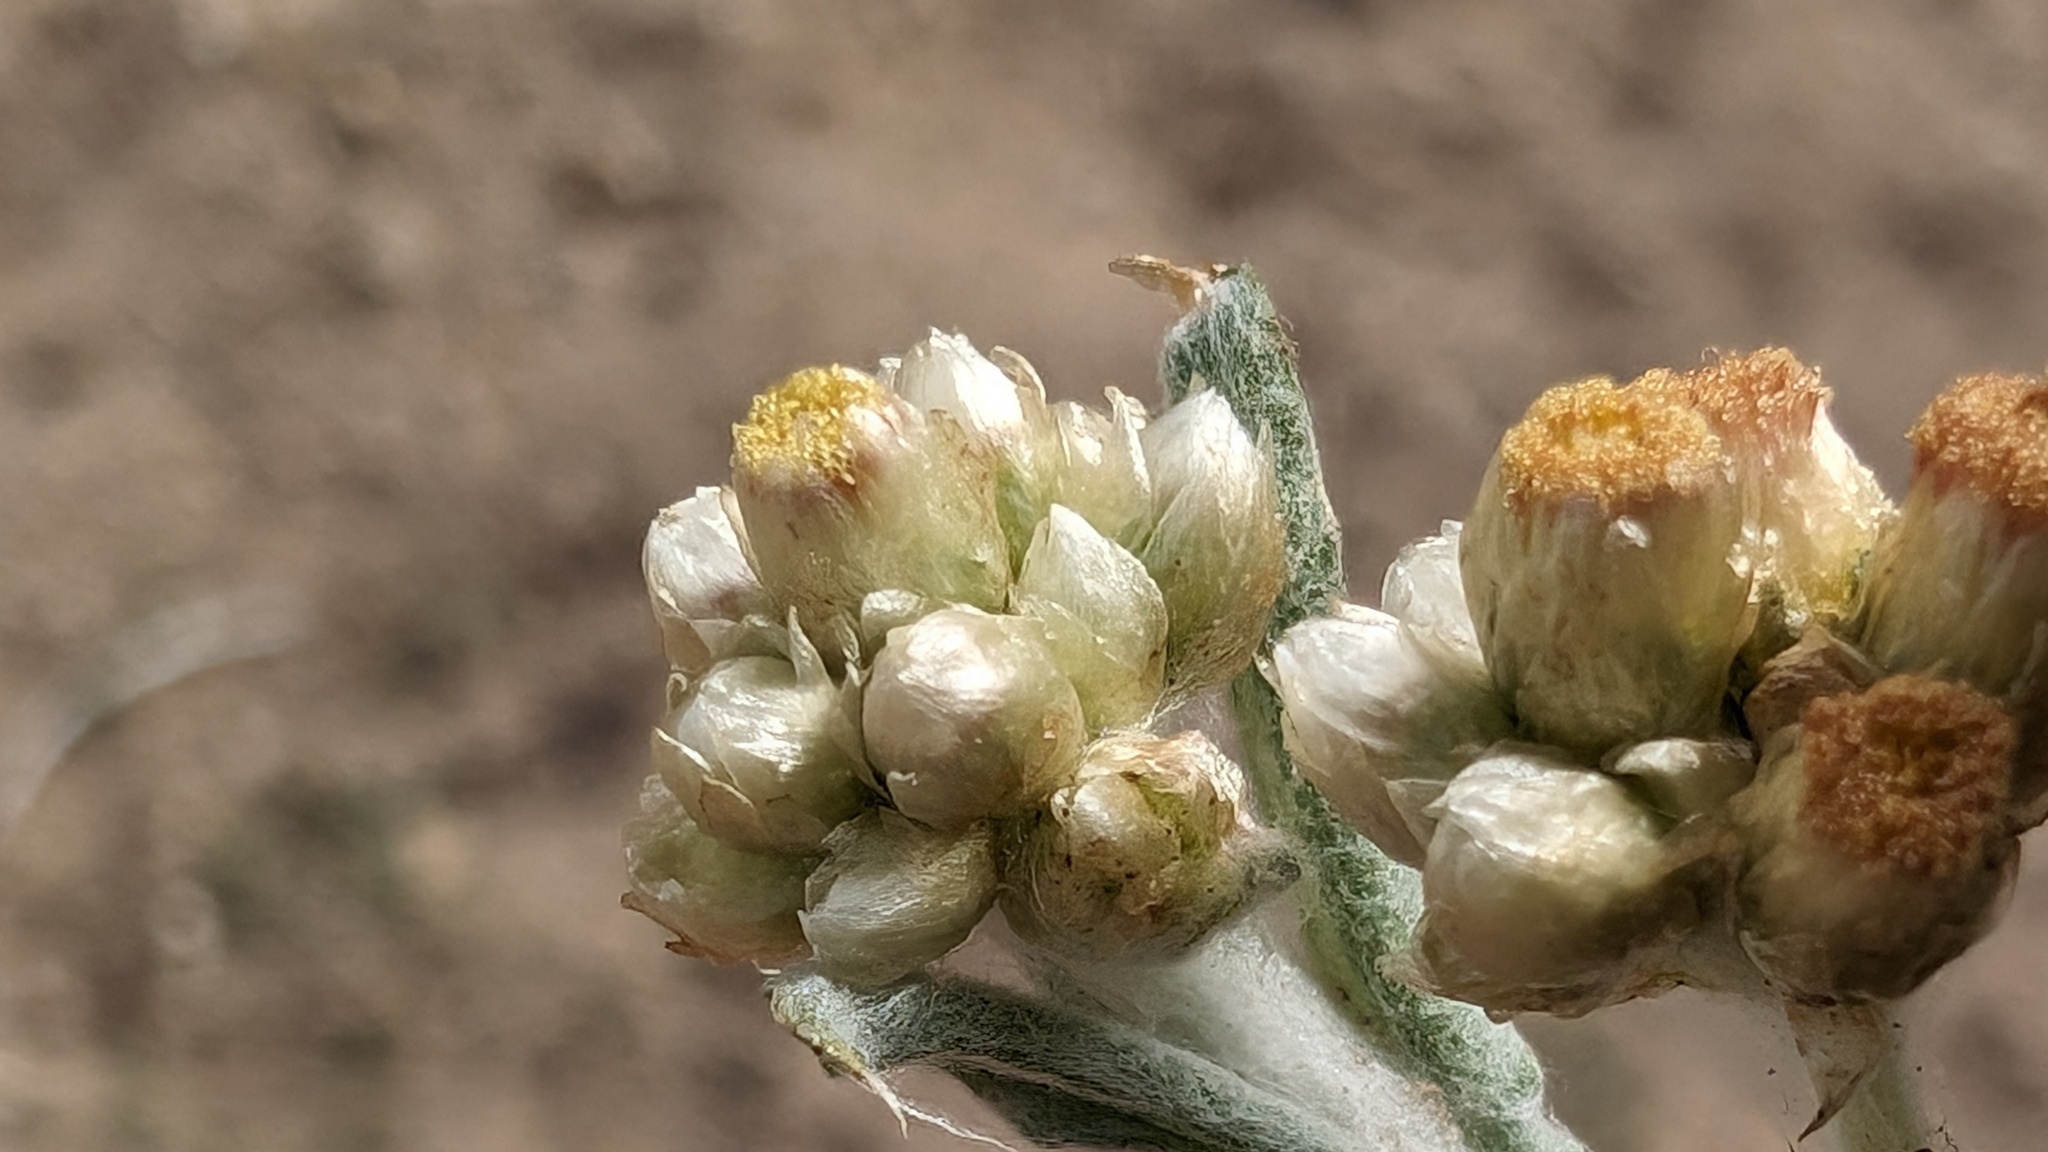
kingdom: Plantae
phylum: Tracheophyta
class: Magnoliopsida
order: Asterales
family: Asteraceae
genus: Helichrysum
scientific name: Helichrysum luteoalbum
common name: Daisy
